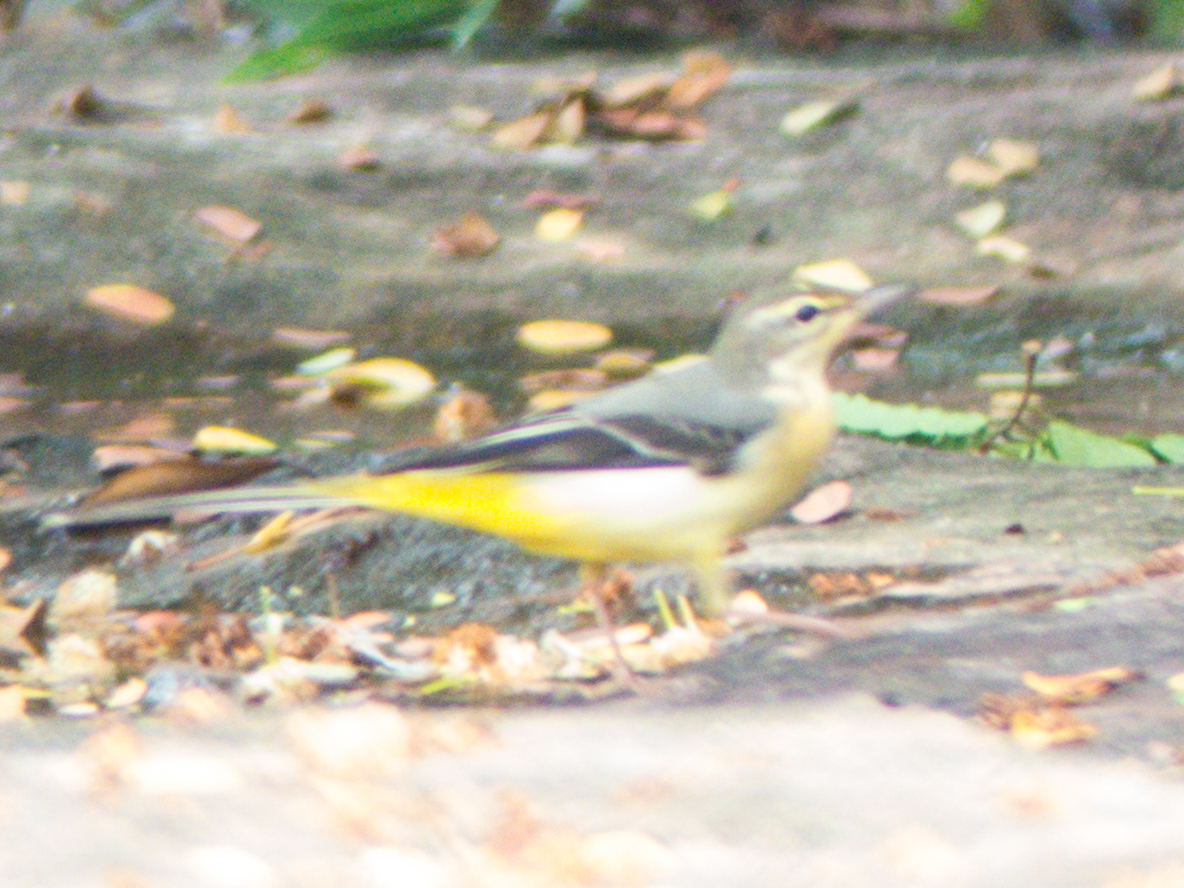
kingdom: Animalia
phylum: Chordata
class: Aves
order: Passeriformes
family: Motacillidae
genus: Motacilla
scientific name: Motacilla cinerea
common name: Grey wagtail
